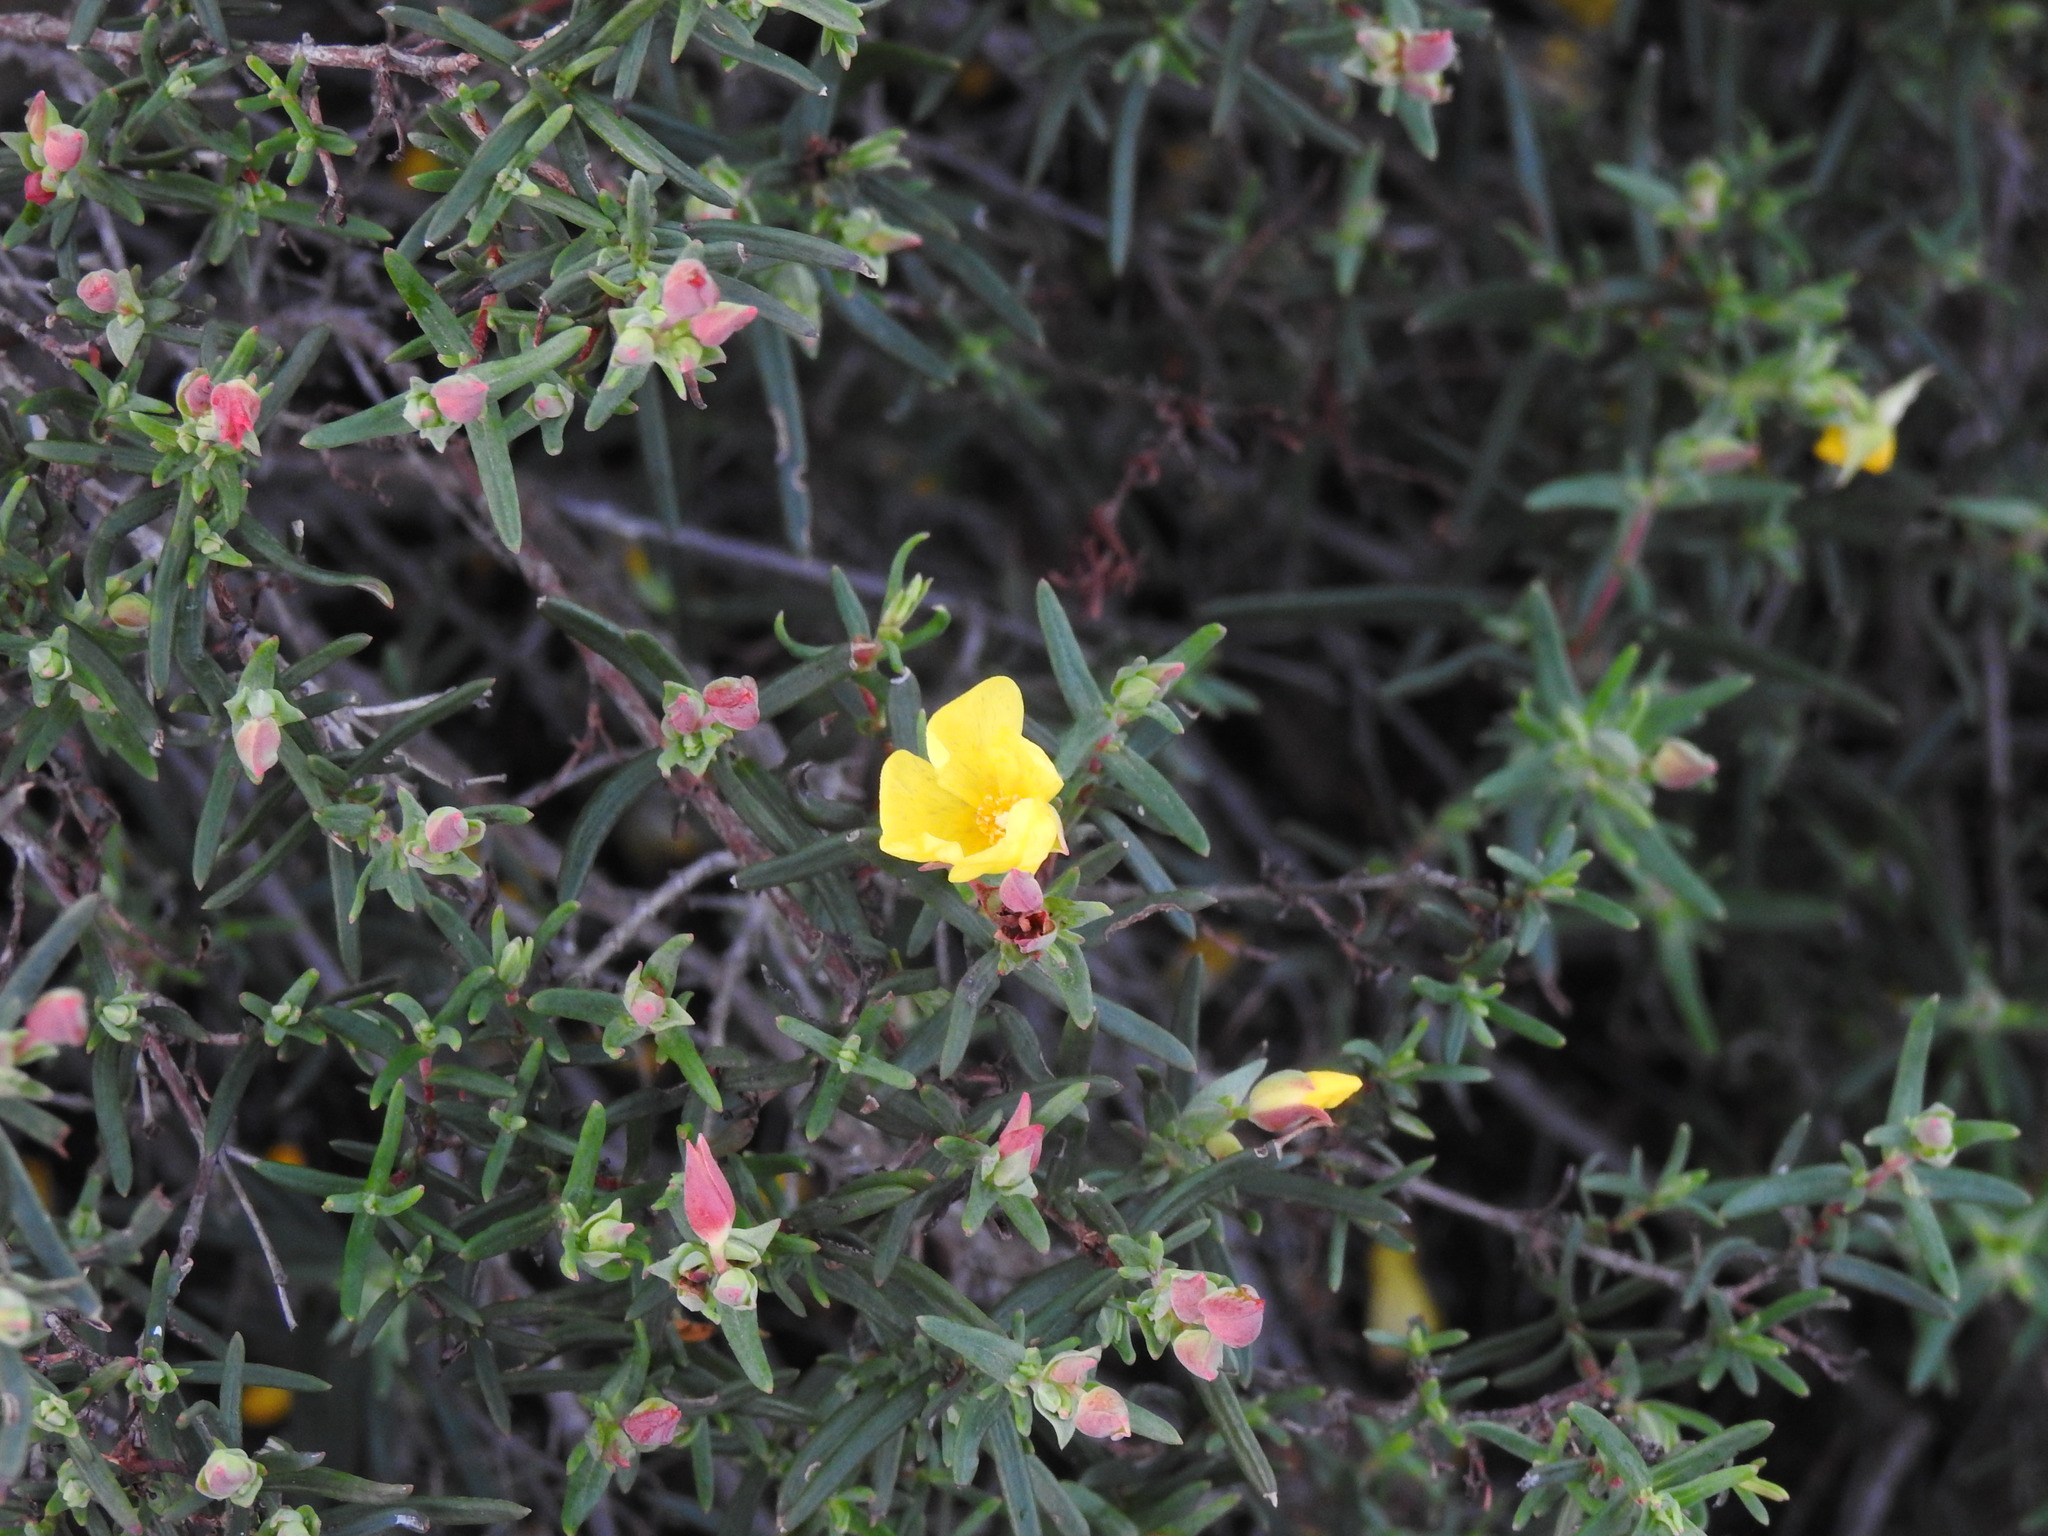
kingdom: Plantae
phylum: Tracheophyta
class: Magnoliopsida
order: Malvales
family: Cistaceae
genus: Halimium
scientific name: Halimium calycinum
